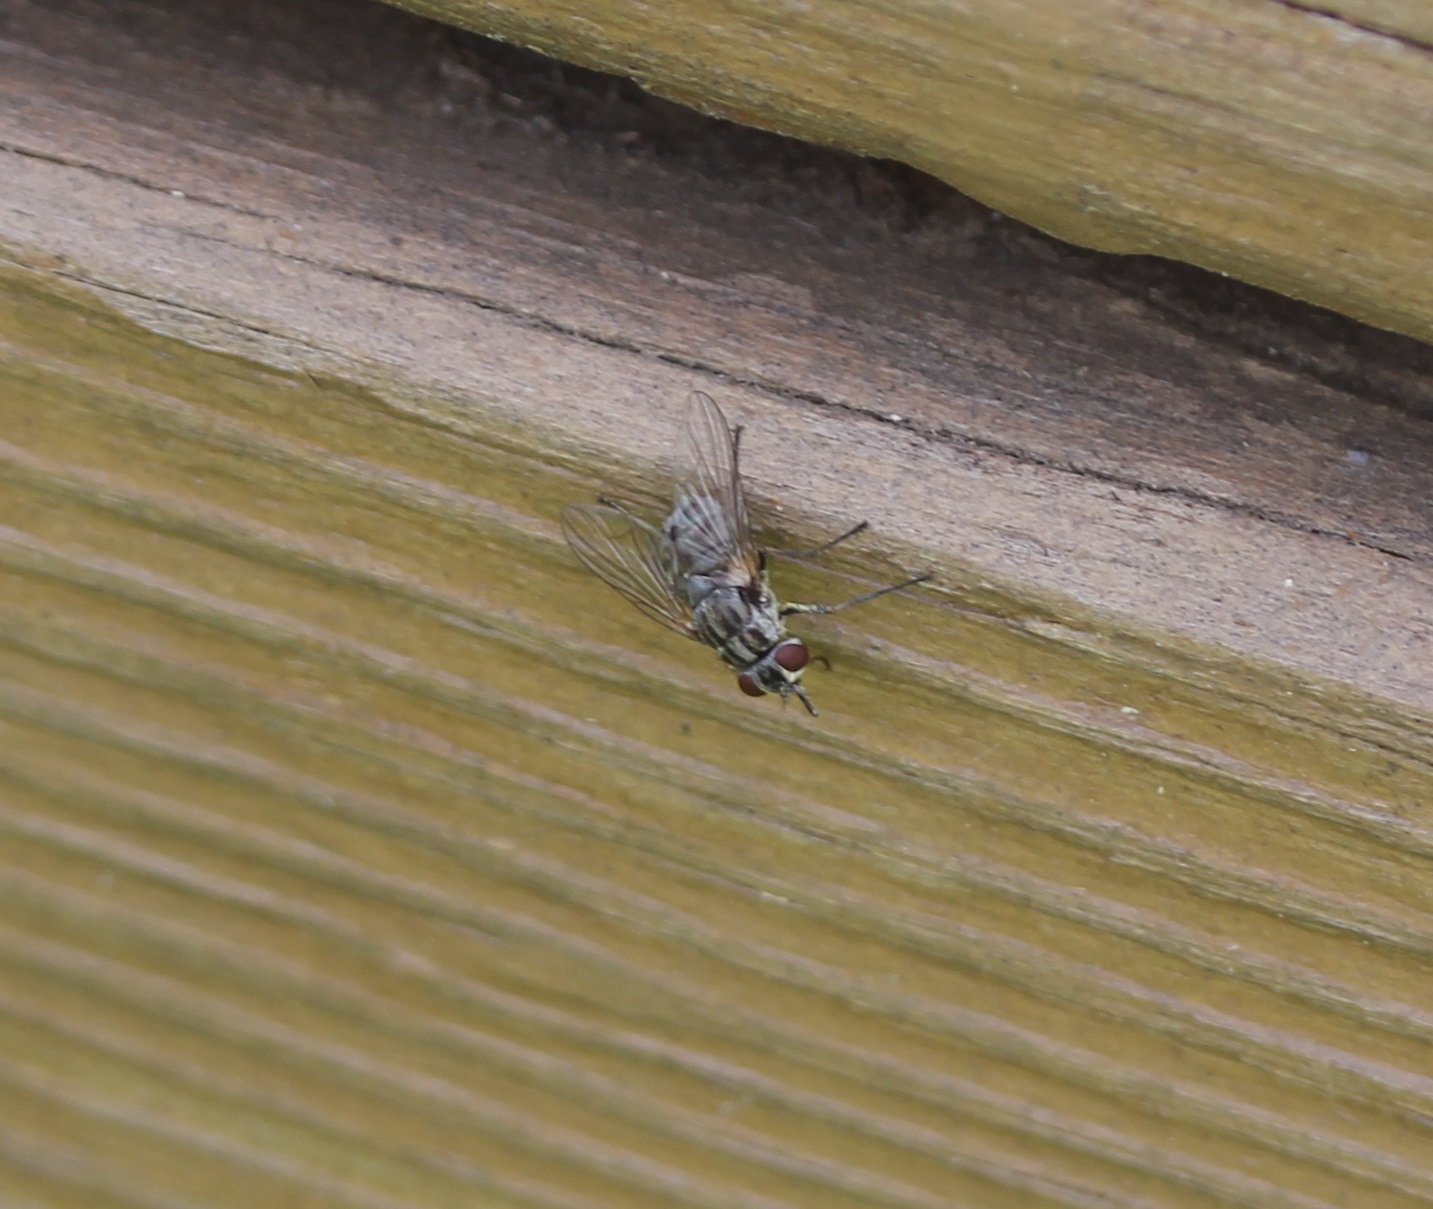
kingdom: Animalia
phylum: Arthropoda
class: Insecta
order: Diptera
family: Muscidae
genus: Stomoxys
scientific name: Stomoxys calcitrans
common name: Stable fly
